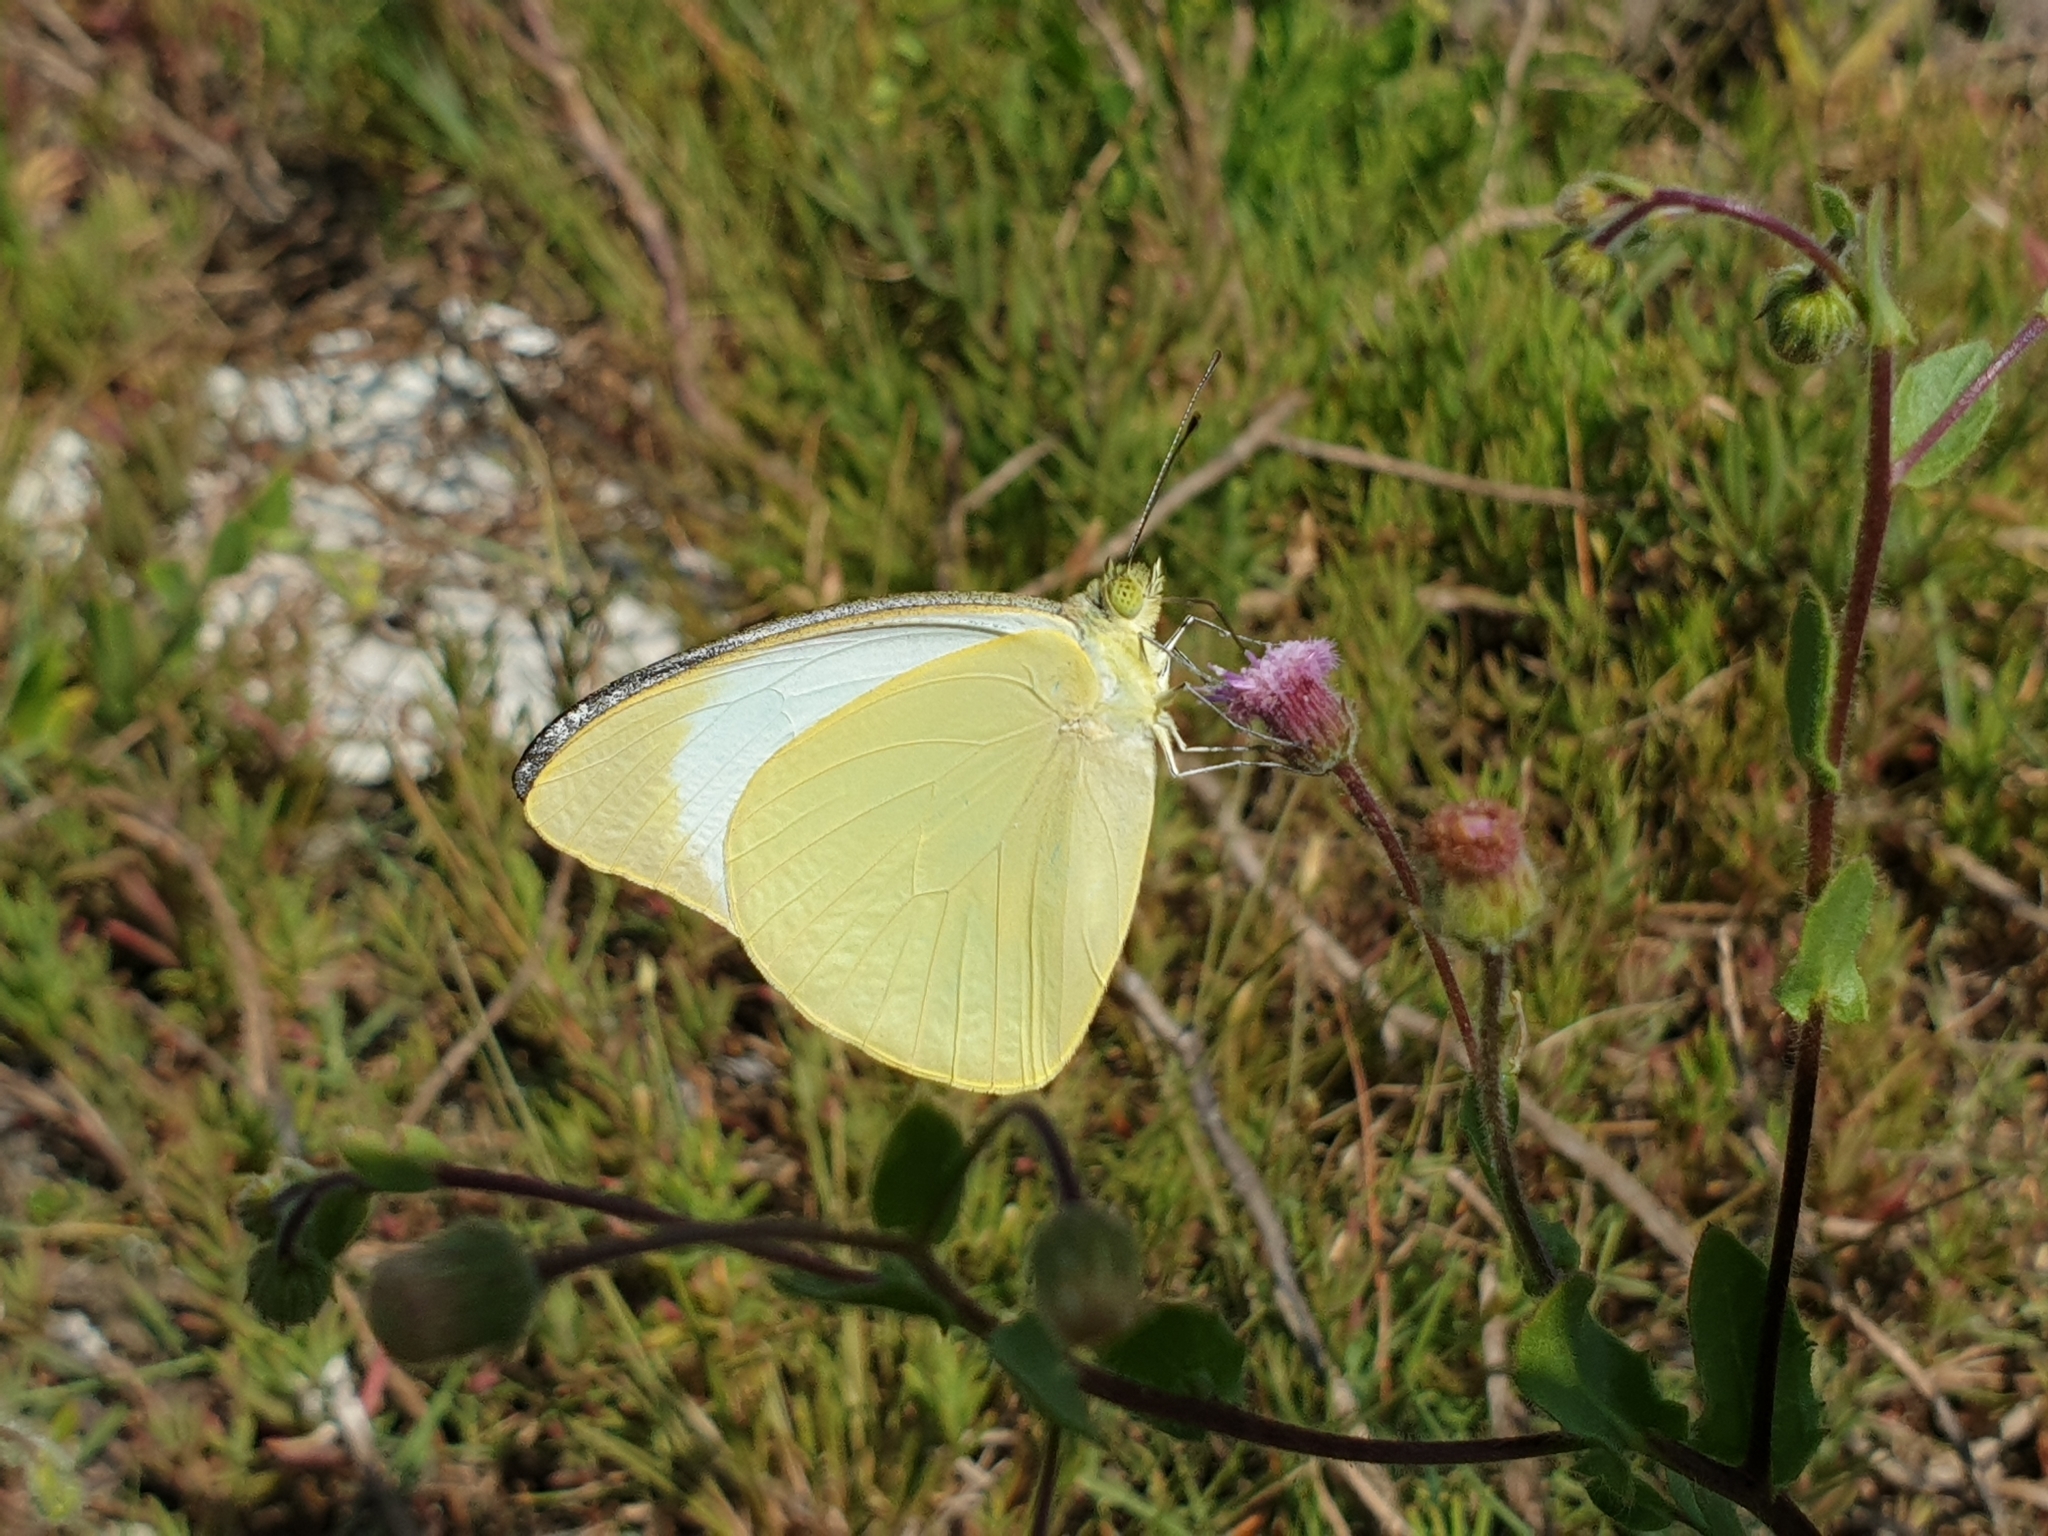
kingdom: Animalia
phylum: Arthropoda
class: Insecta
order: Lepidoptera
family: Pieridae
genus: Appias
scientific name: Appias galene
